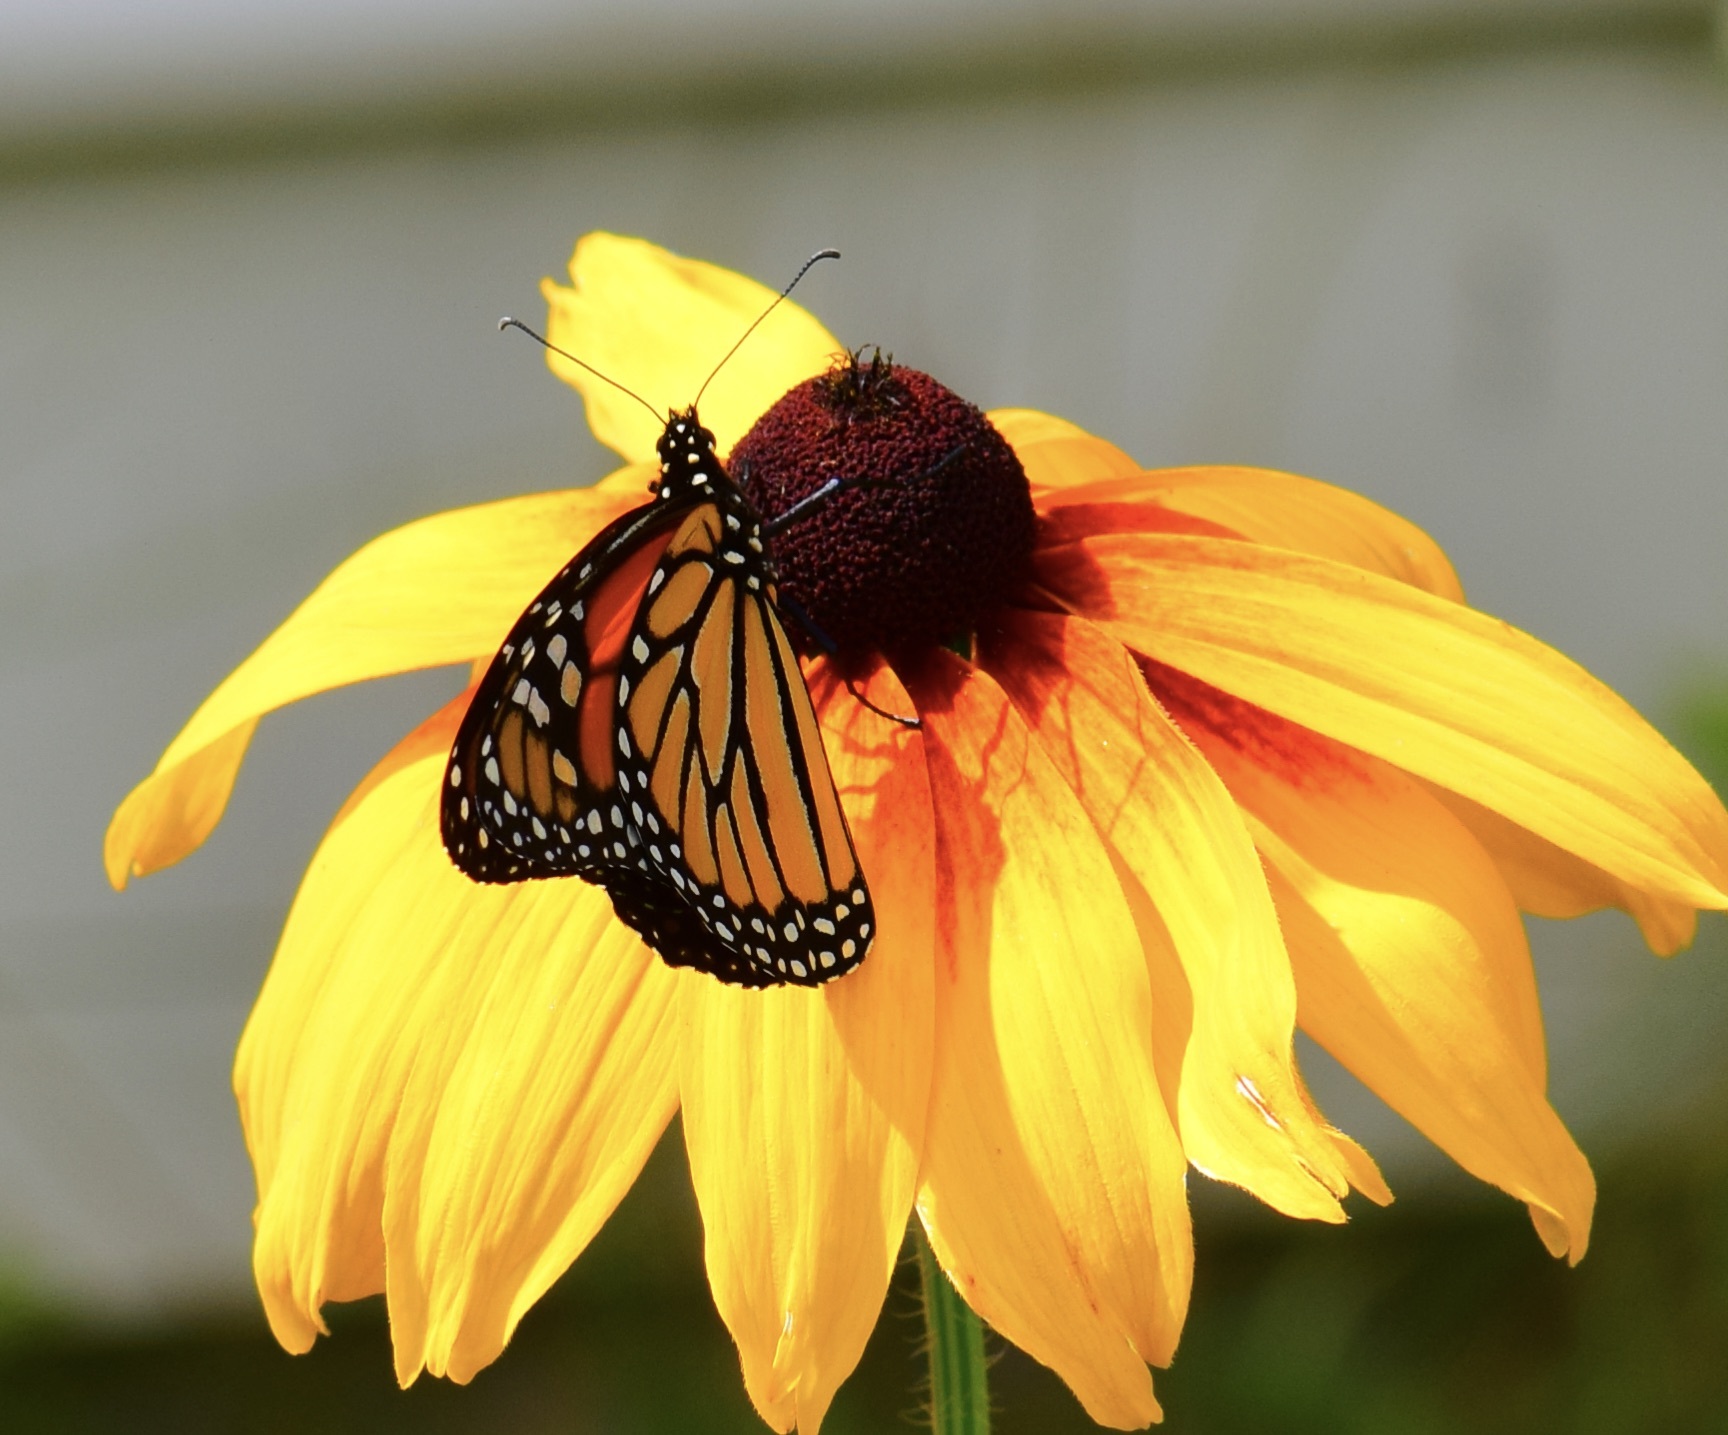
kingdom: Animalia
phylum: Arthropoda
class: Insecta
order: Lepidoptera
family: Nymphalidae
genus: Danaus
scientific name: Danaus plexippus
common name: Monarch
